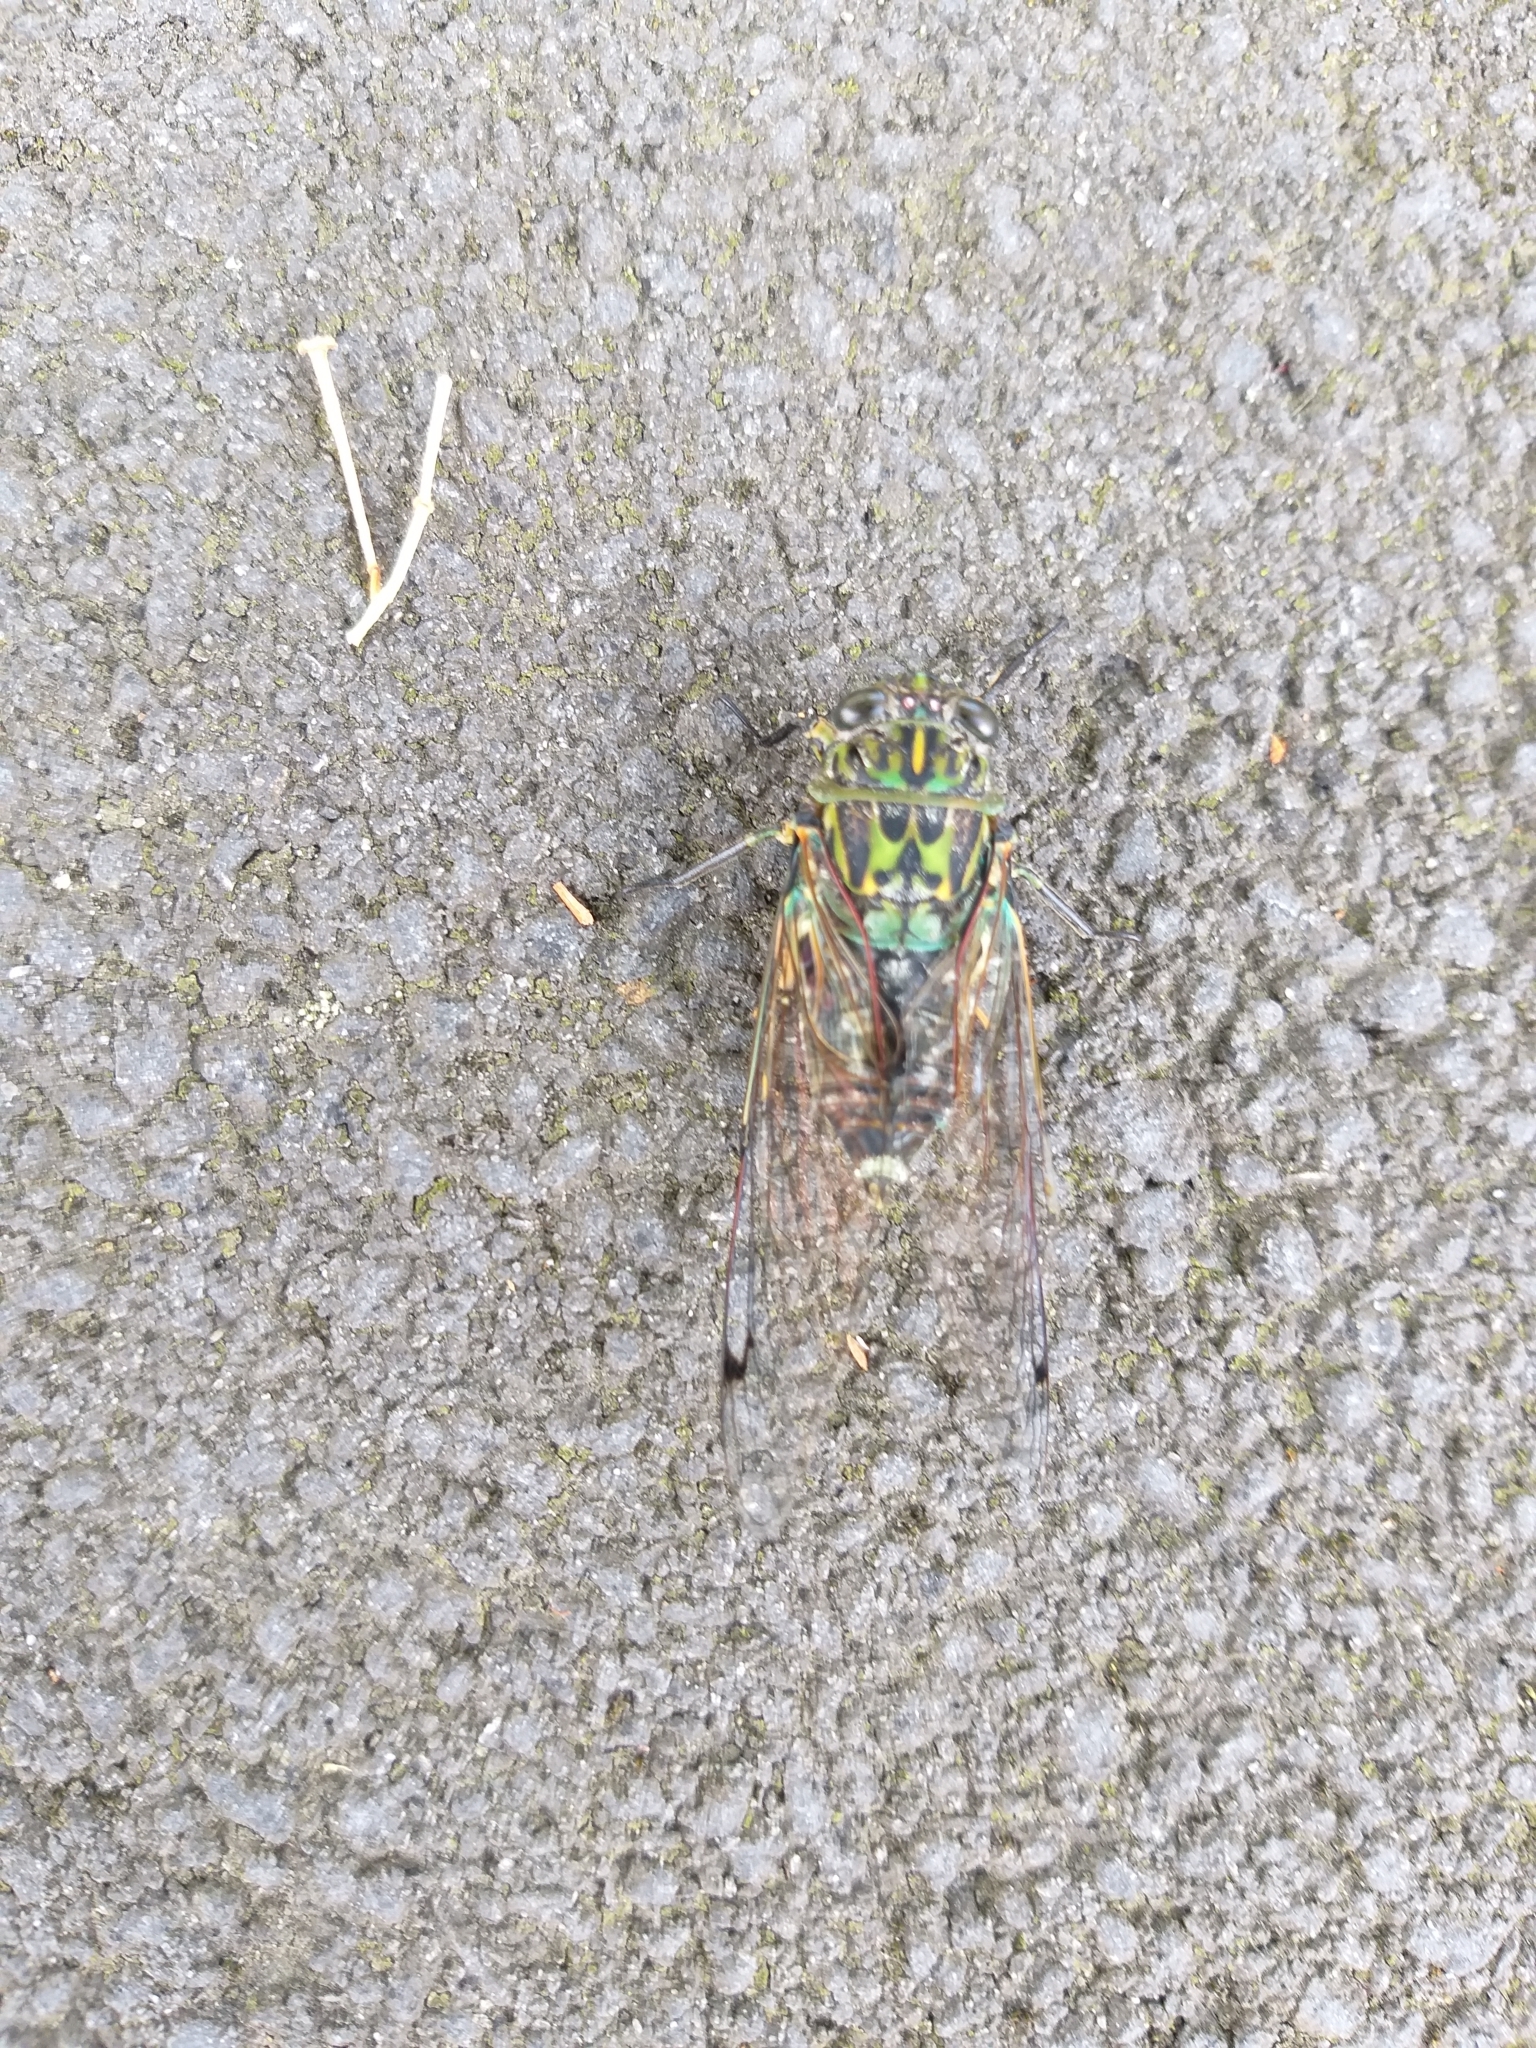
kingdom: Animalia
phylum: Arthropoda
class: Insecta
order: Hemiptera
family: Cicadidae
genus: Amphipsalta
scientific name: Amphipsalta zelandica
